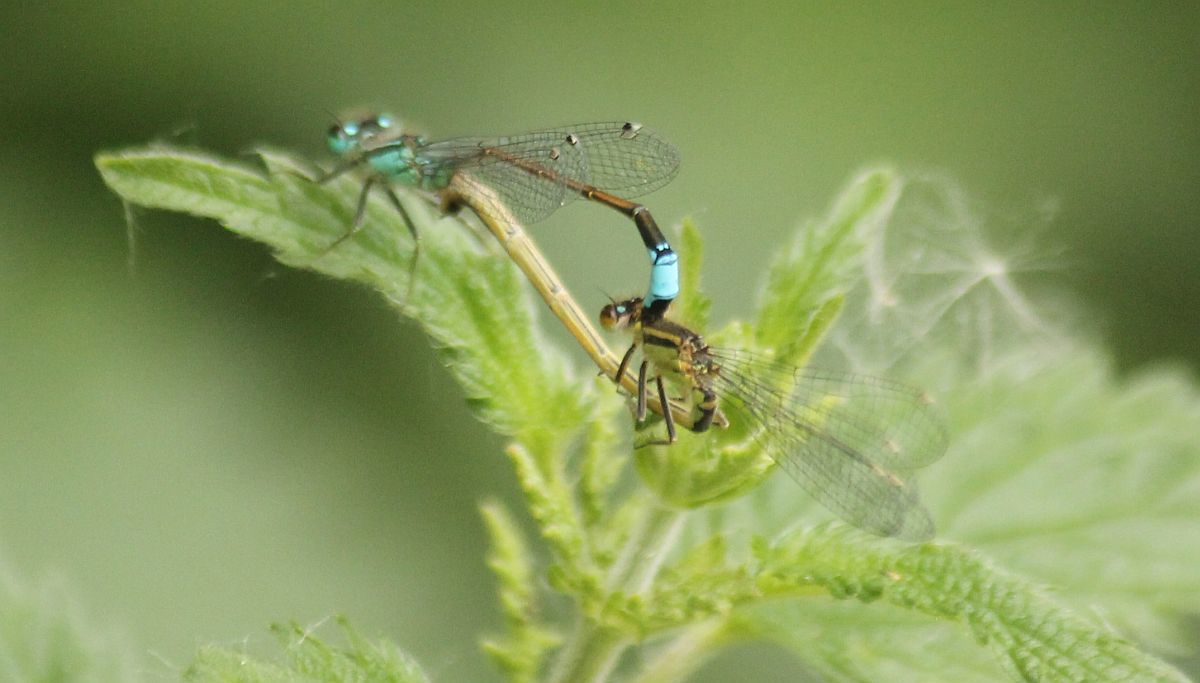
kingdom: Animalia
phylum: Arthropoda
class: Insecta
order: Odonata
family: Coenagrionidae
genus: Ischnura
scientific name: Ischnura elegans
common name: Blue-tailed damselfly
